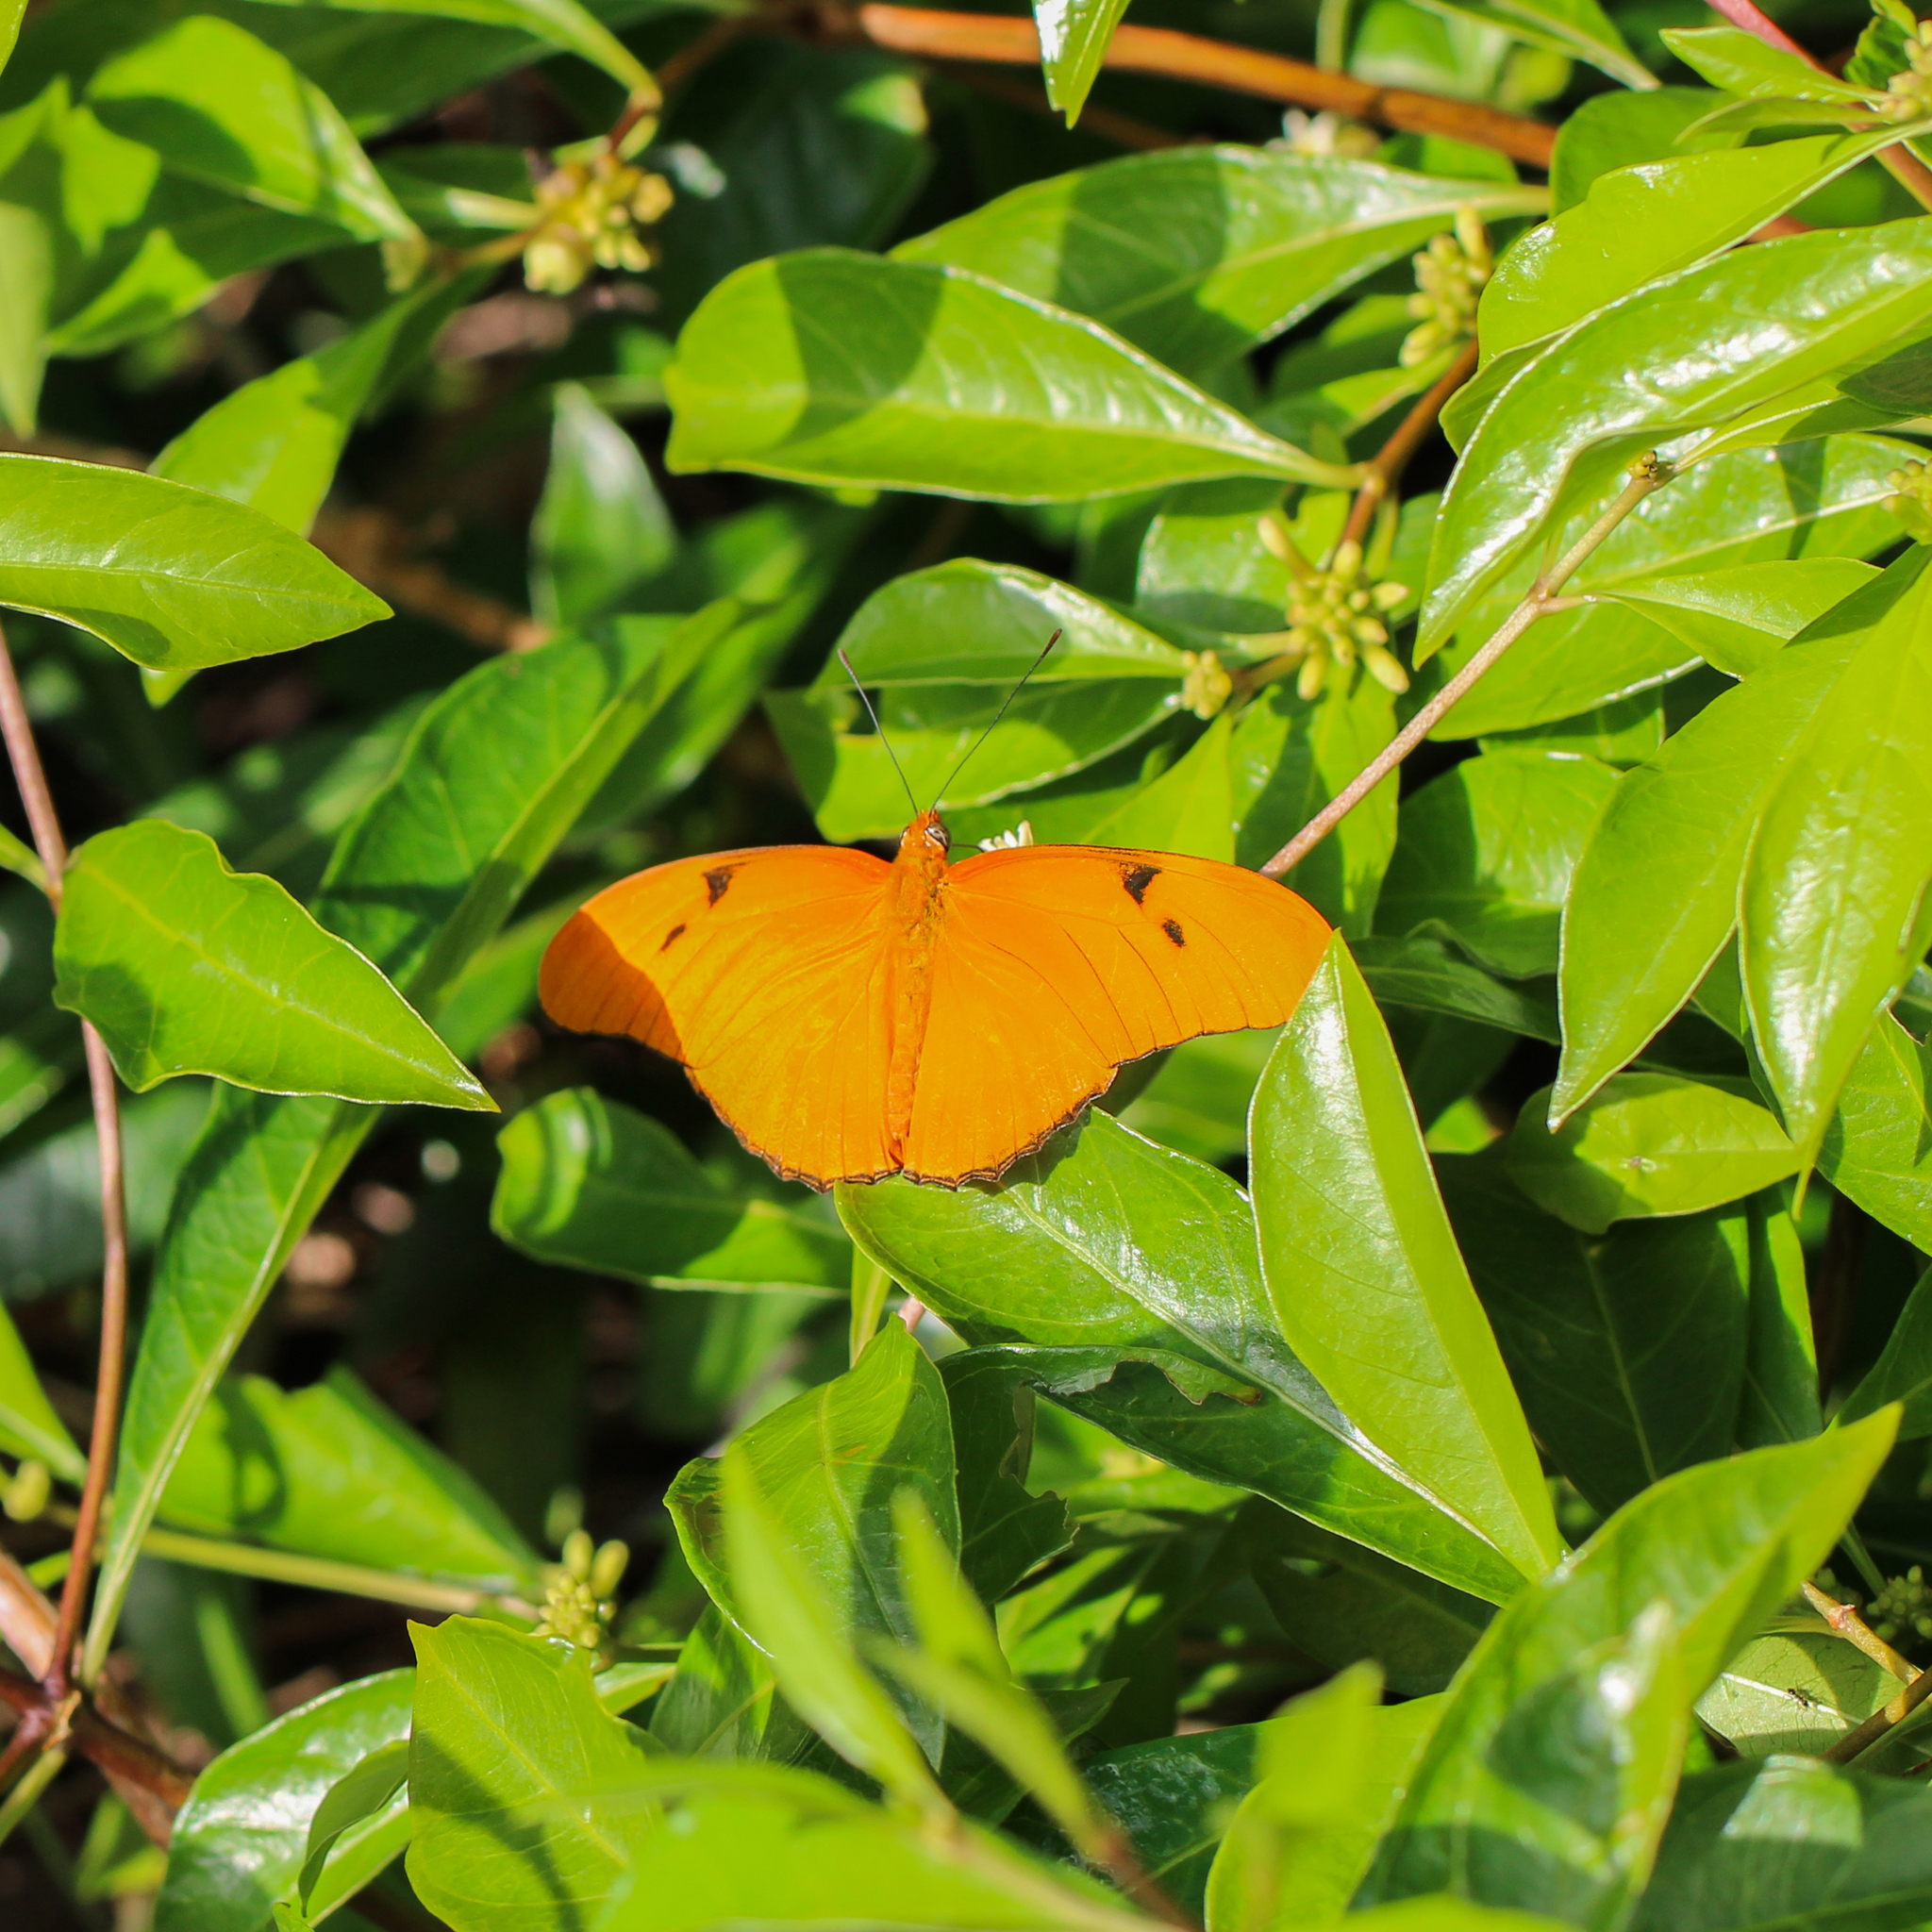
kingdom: Animalia
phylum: Arthropoda
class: Insecta
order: Lepidoptera
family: Nymphalidae
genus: Dryas
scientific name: Dryas iulia
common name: Flambeau
